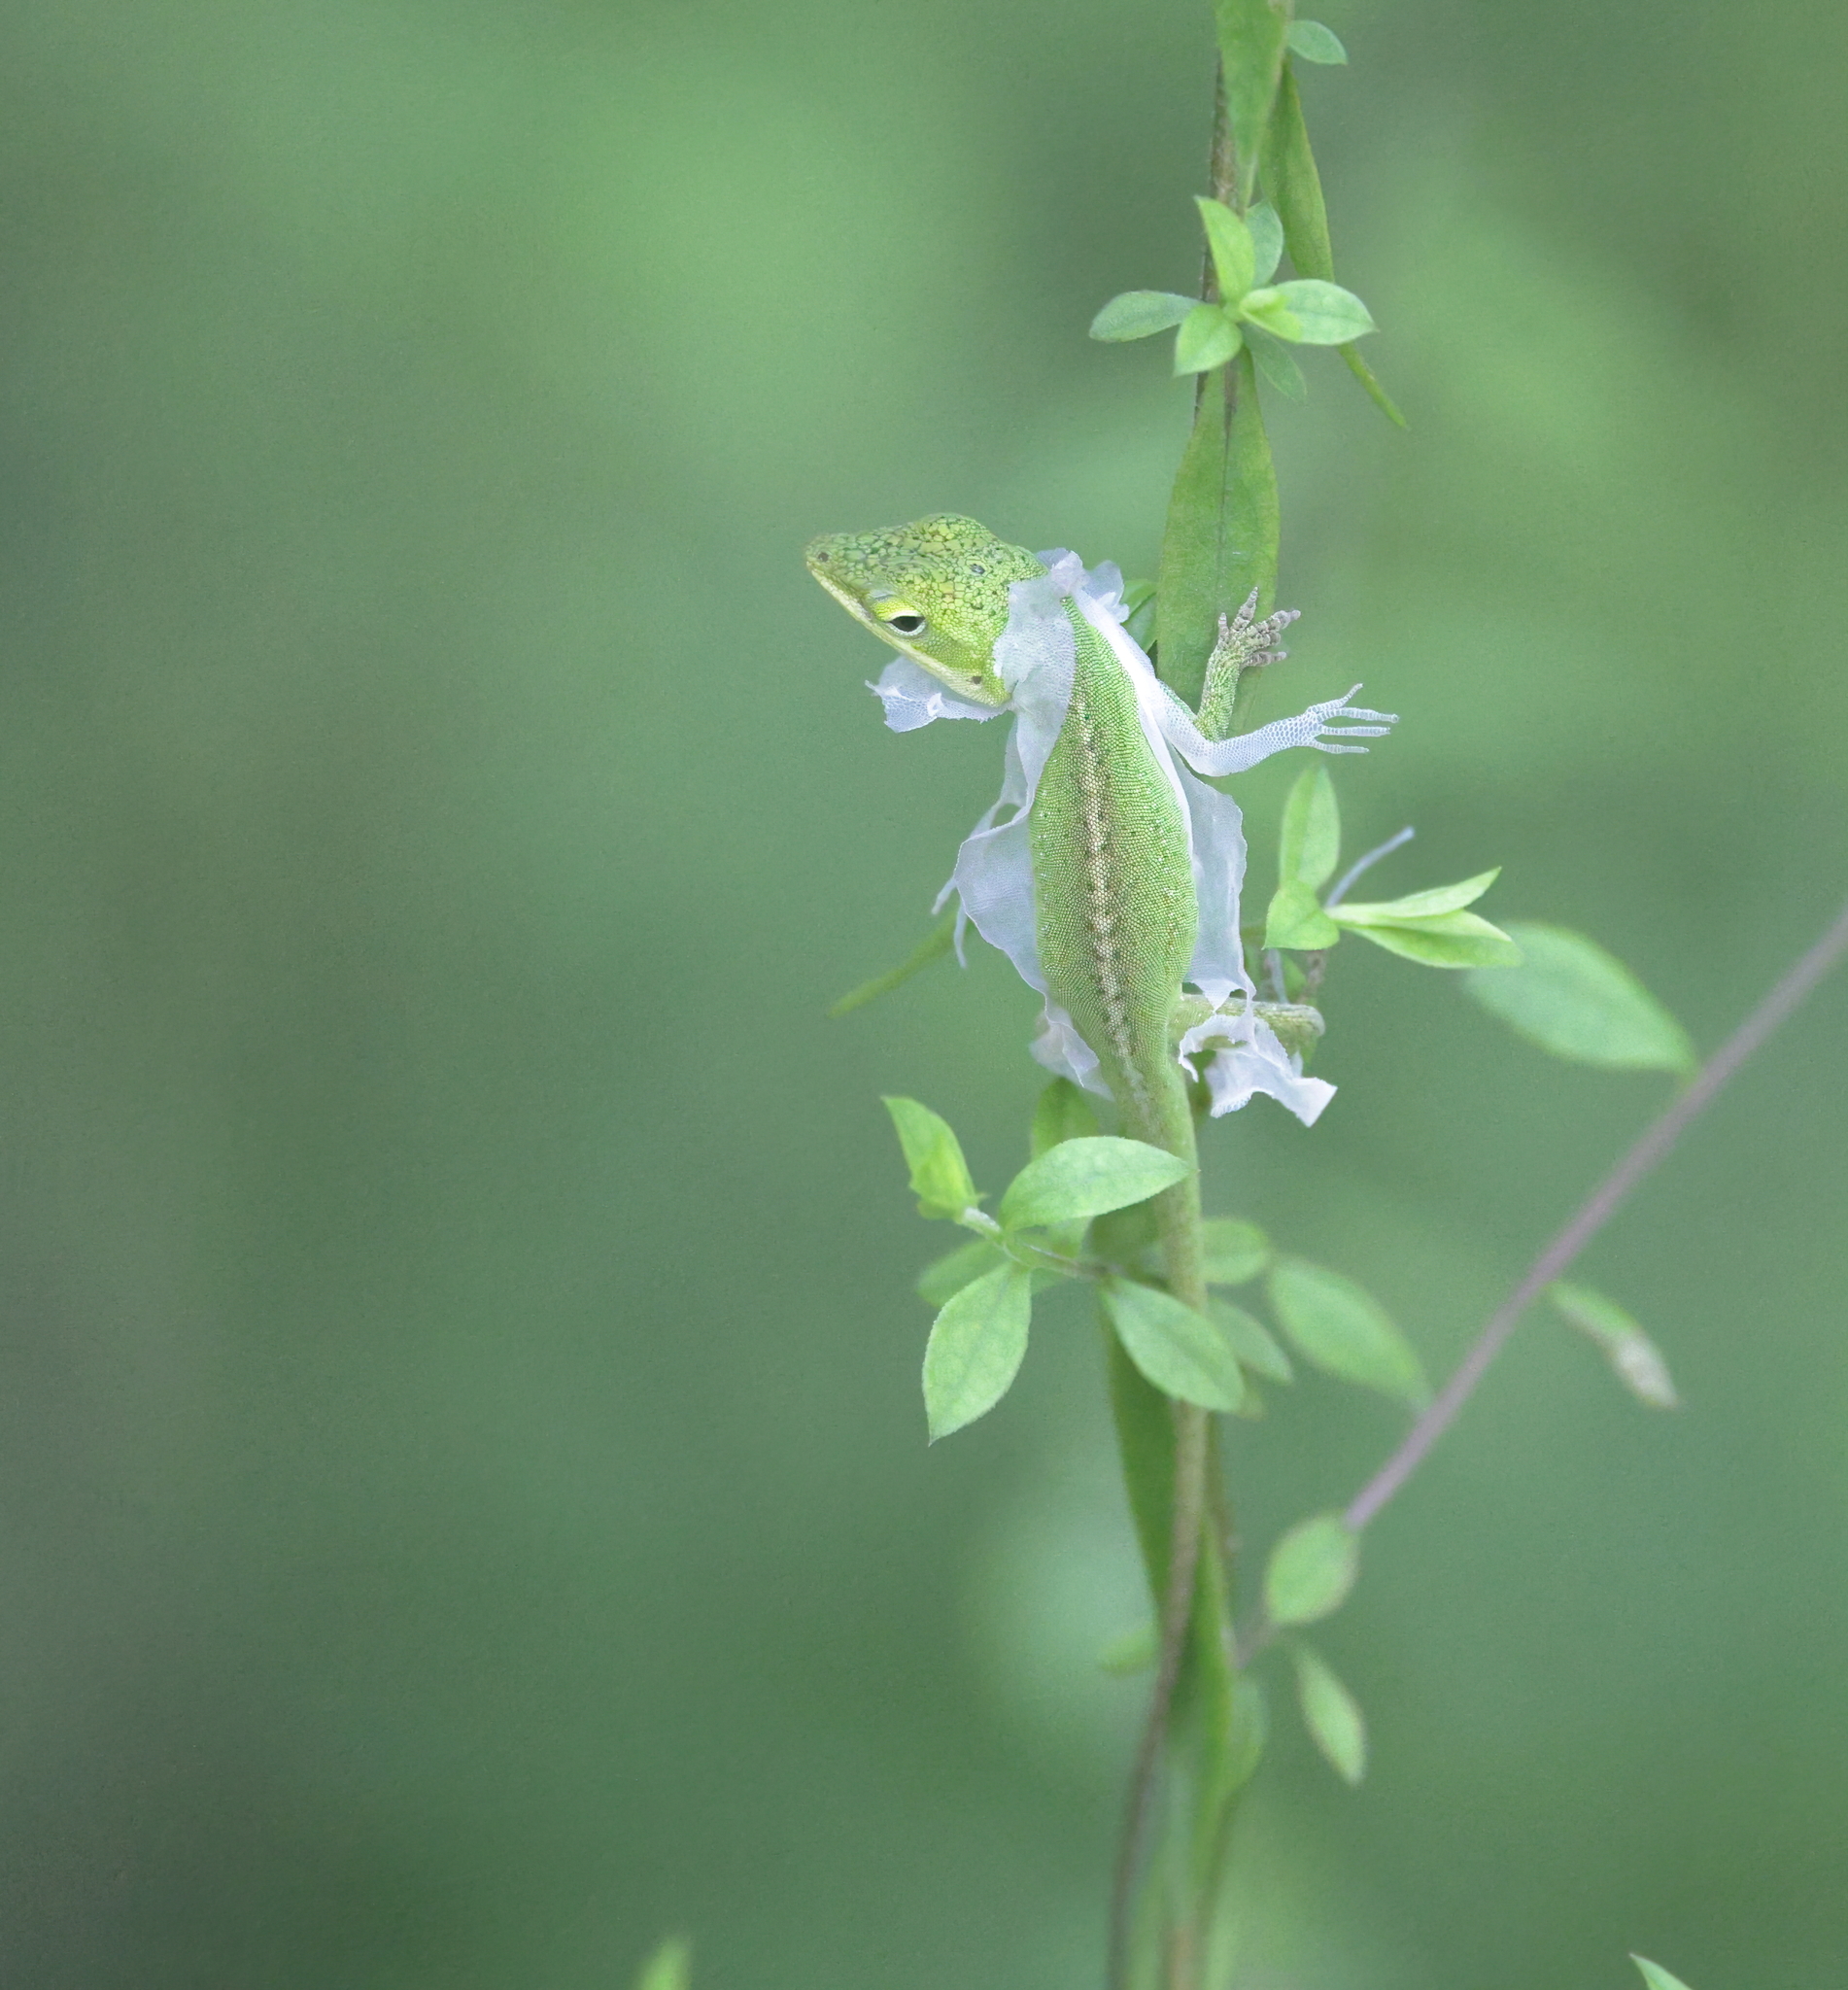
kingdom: Animalia
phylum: Chordata
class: Squamata
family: Dactyloidae
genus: Anolis
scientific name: Anolis carolinensis
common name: Green anole
